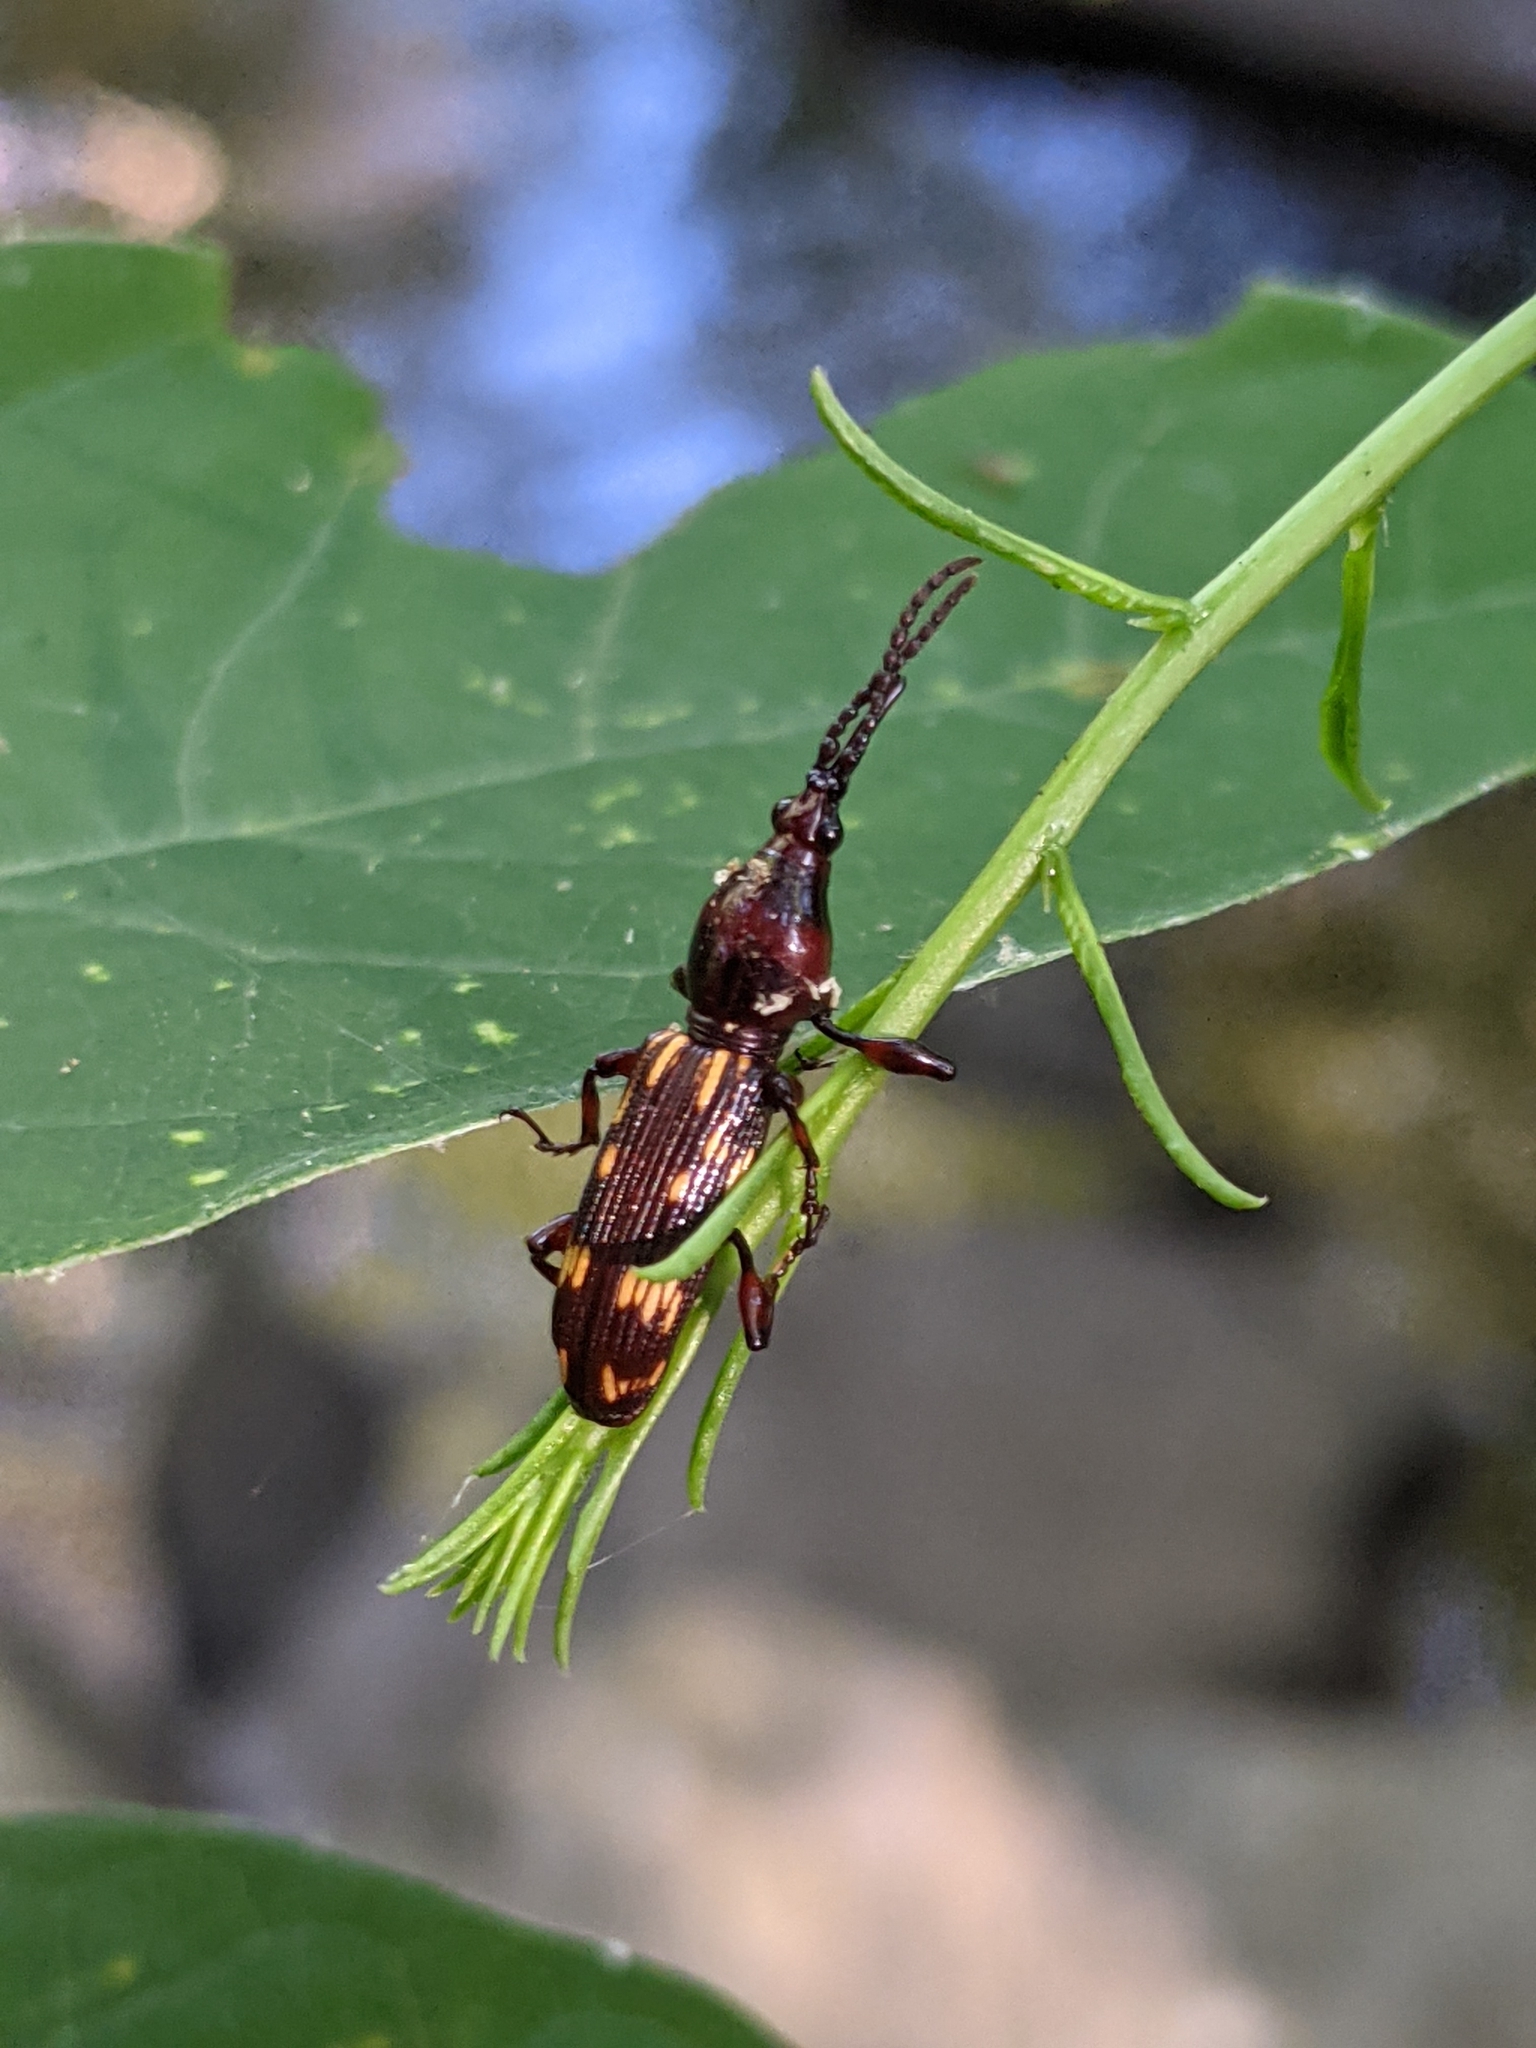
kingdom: Animalia
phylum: Arthropoda
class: Insecta
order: Coleoptera
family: Brentidae
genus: Arrenodes
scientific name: Arrenodes minutus
